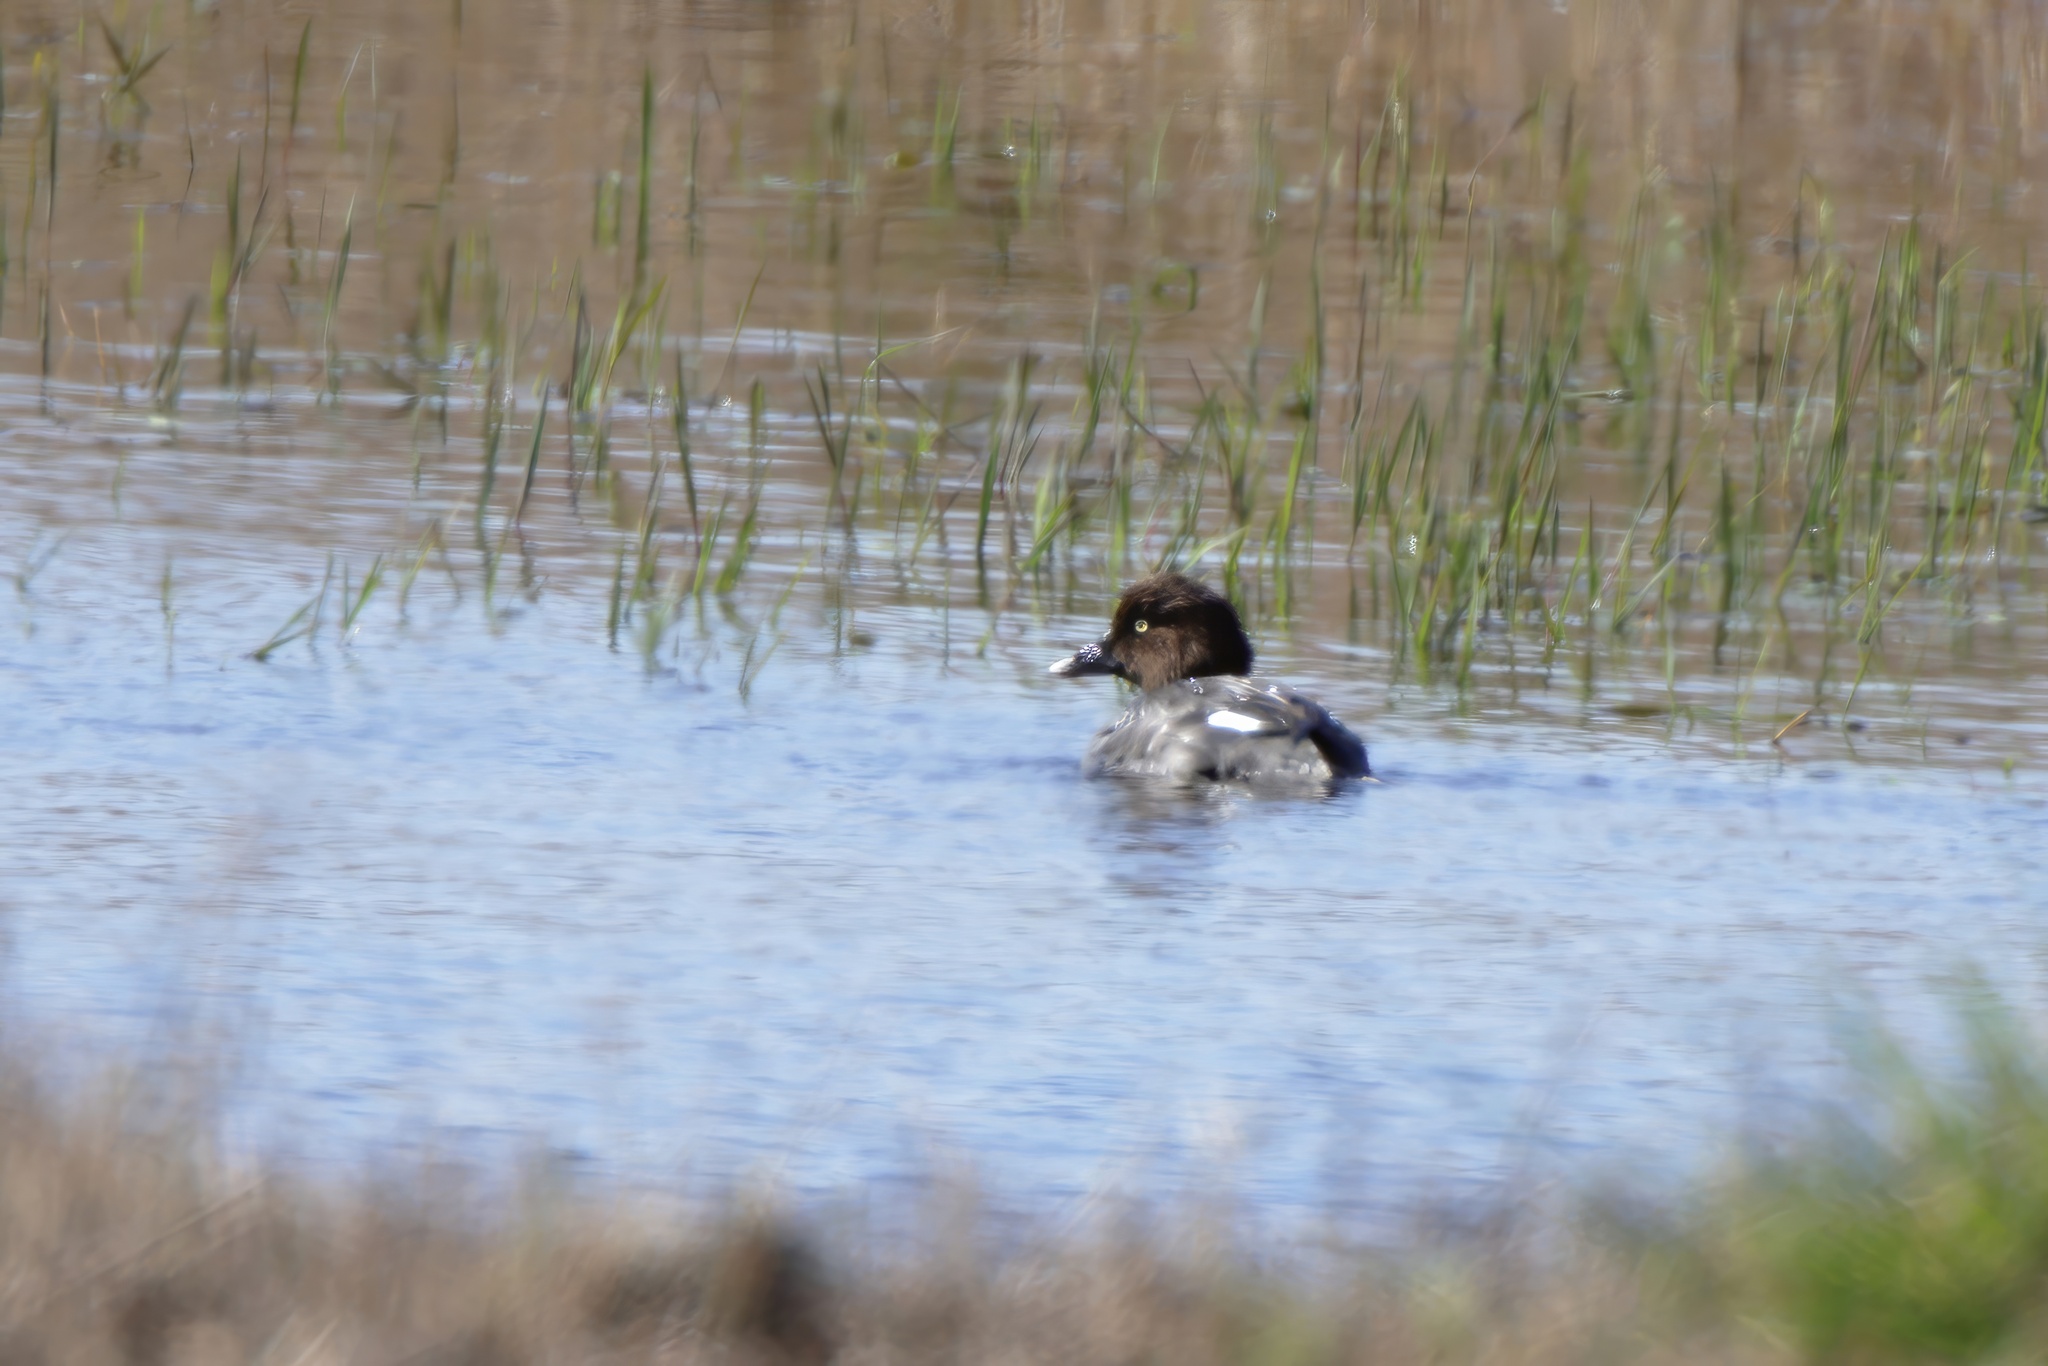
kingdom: Animalia
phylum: Chordata
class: Aves
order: Anseriformes
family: Anatidae
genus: Bucephala
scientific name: Bucephala clangula
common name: Common goldeneye
